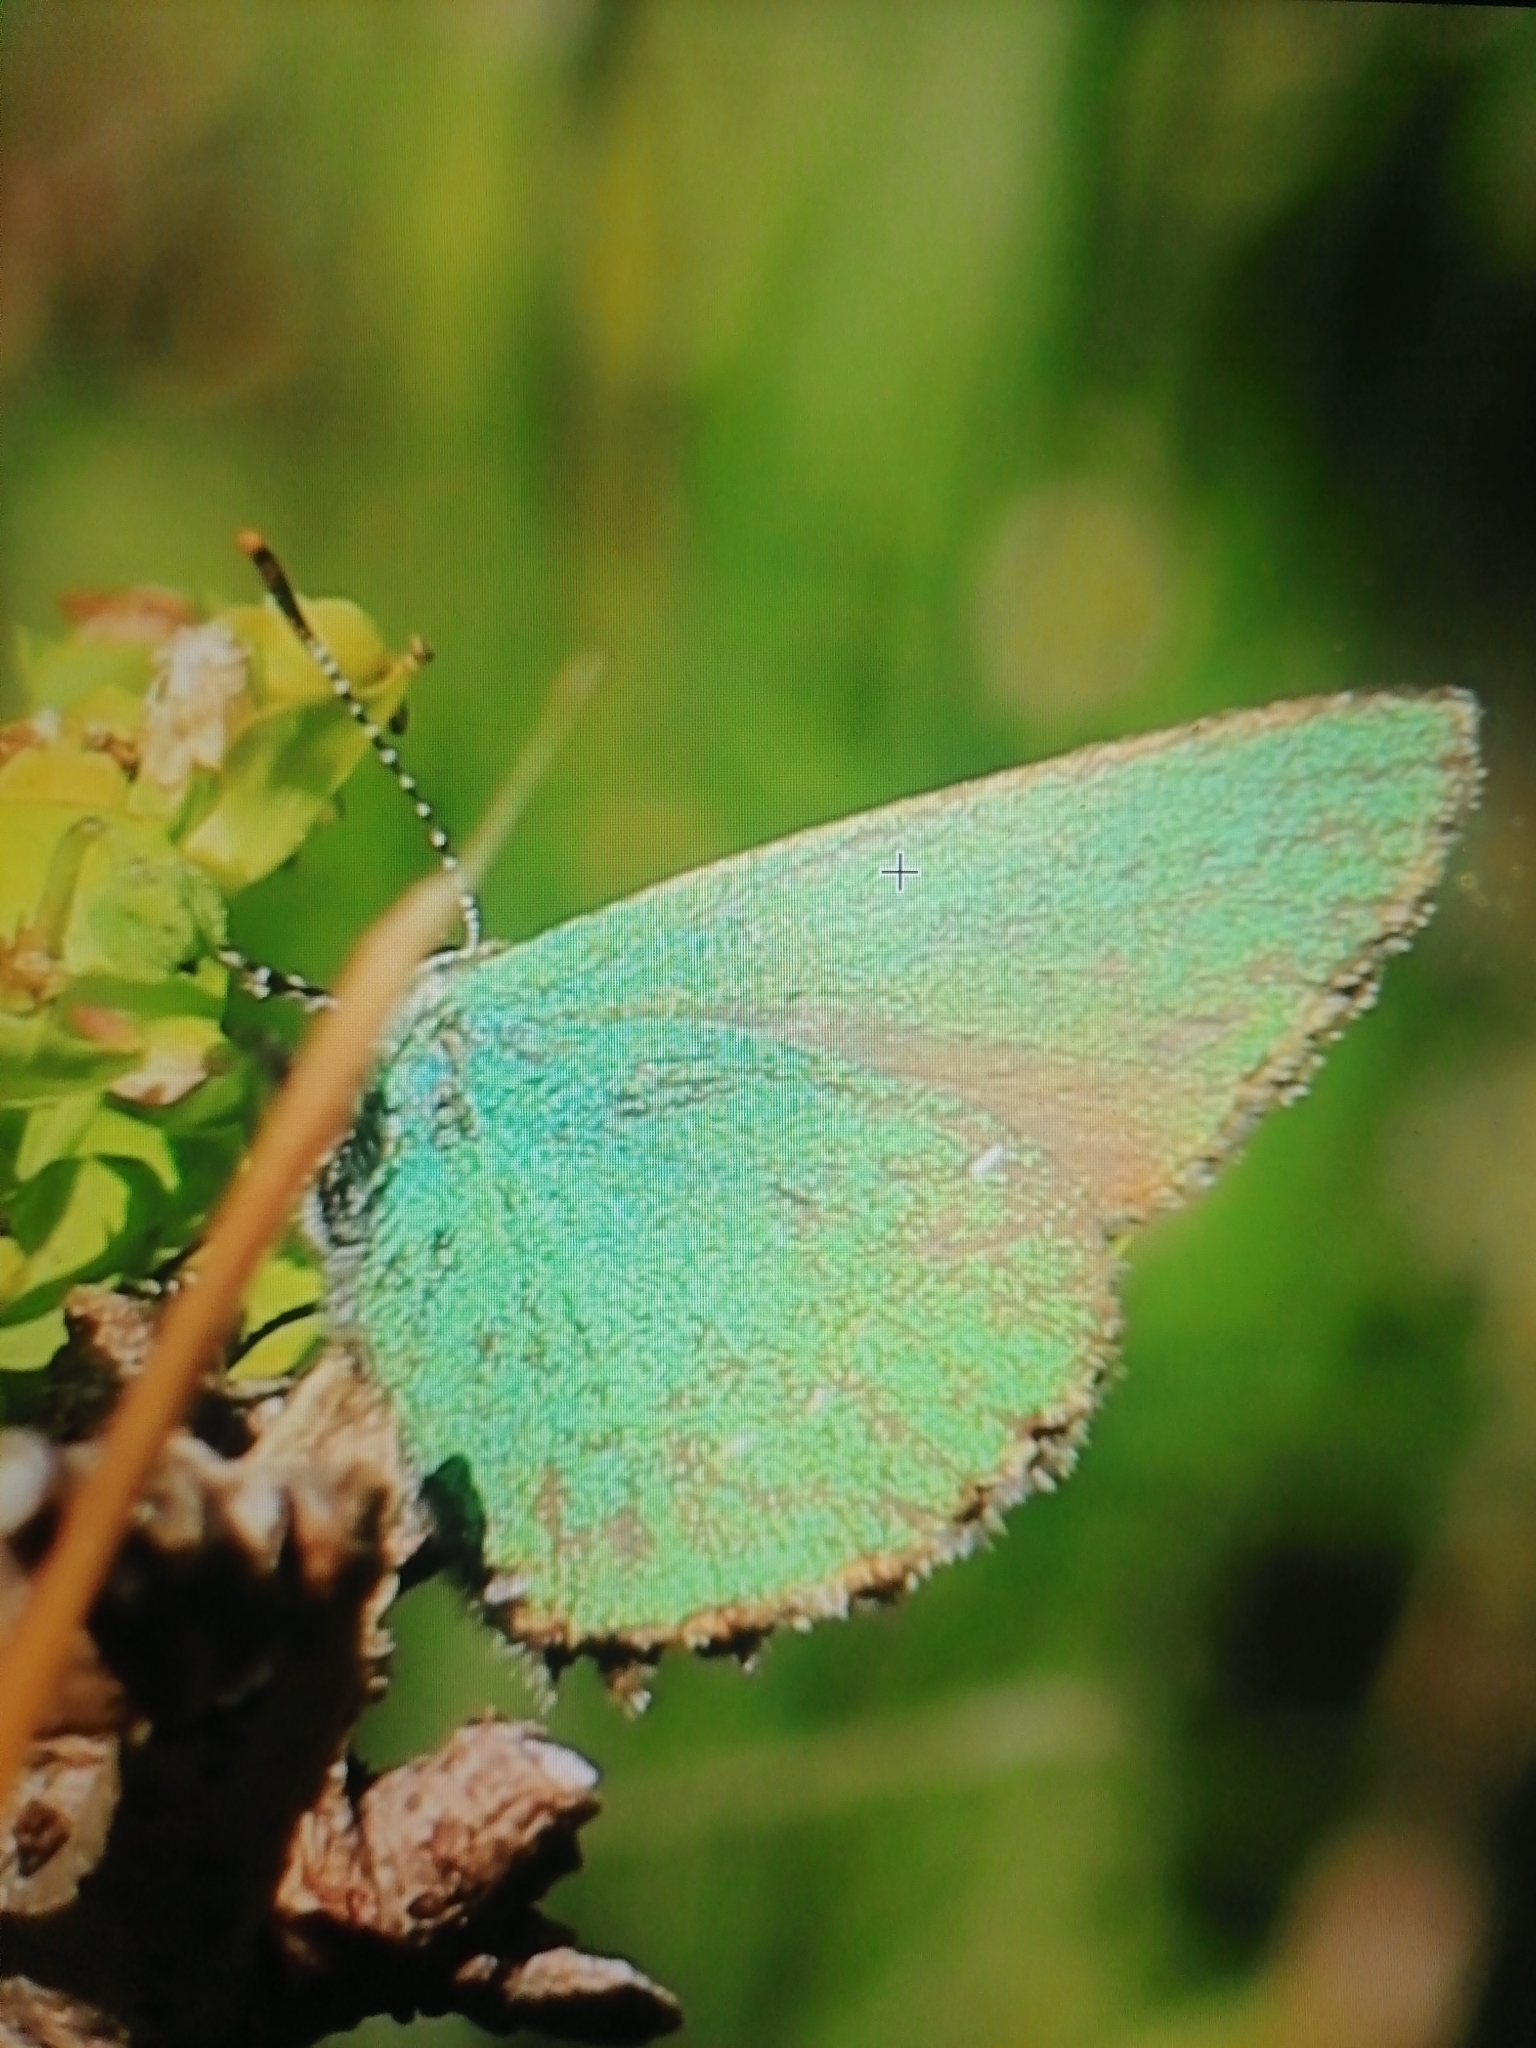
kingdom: Animalia
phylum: Arthropoda
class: Insecta
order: Lepidoptera
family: Lycaenidae
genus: Callophrys
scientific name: Callophrys rubi
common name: Green hairstreak
